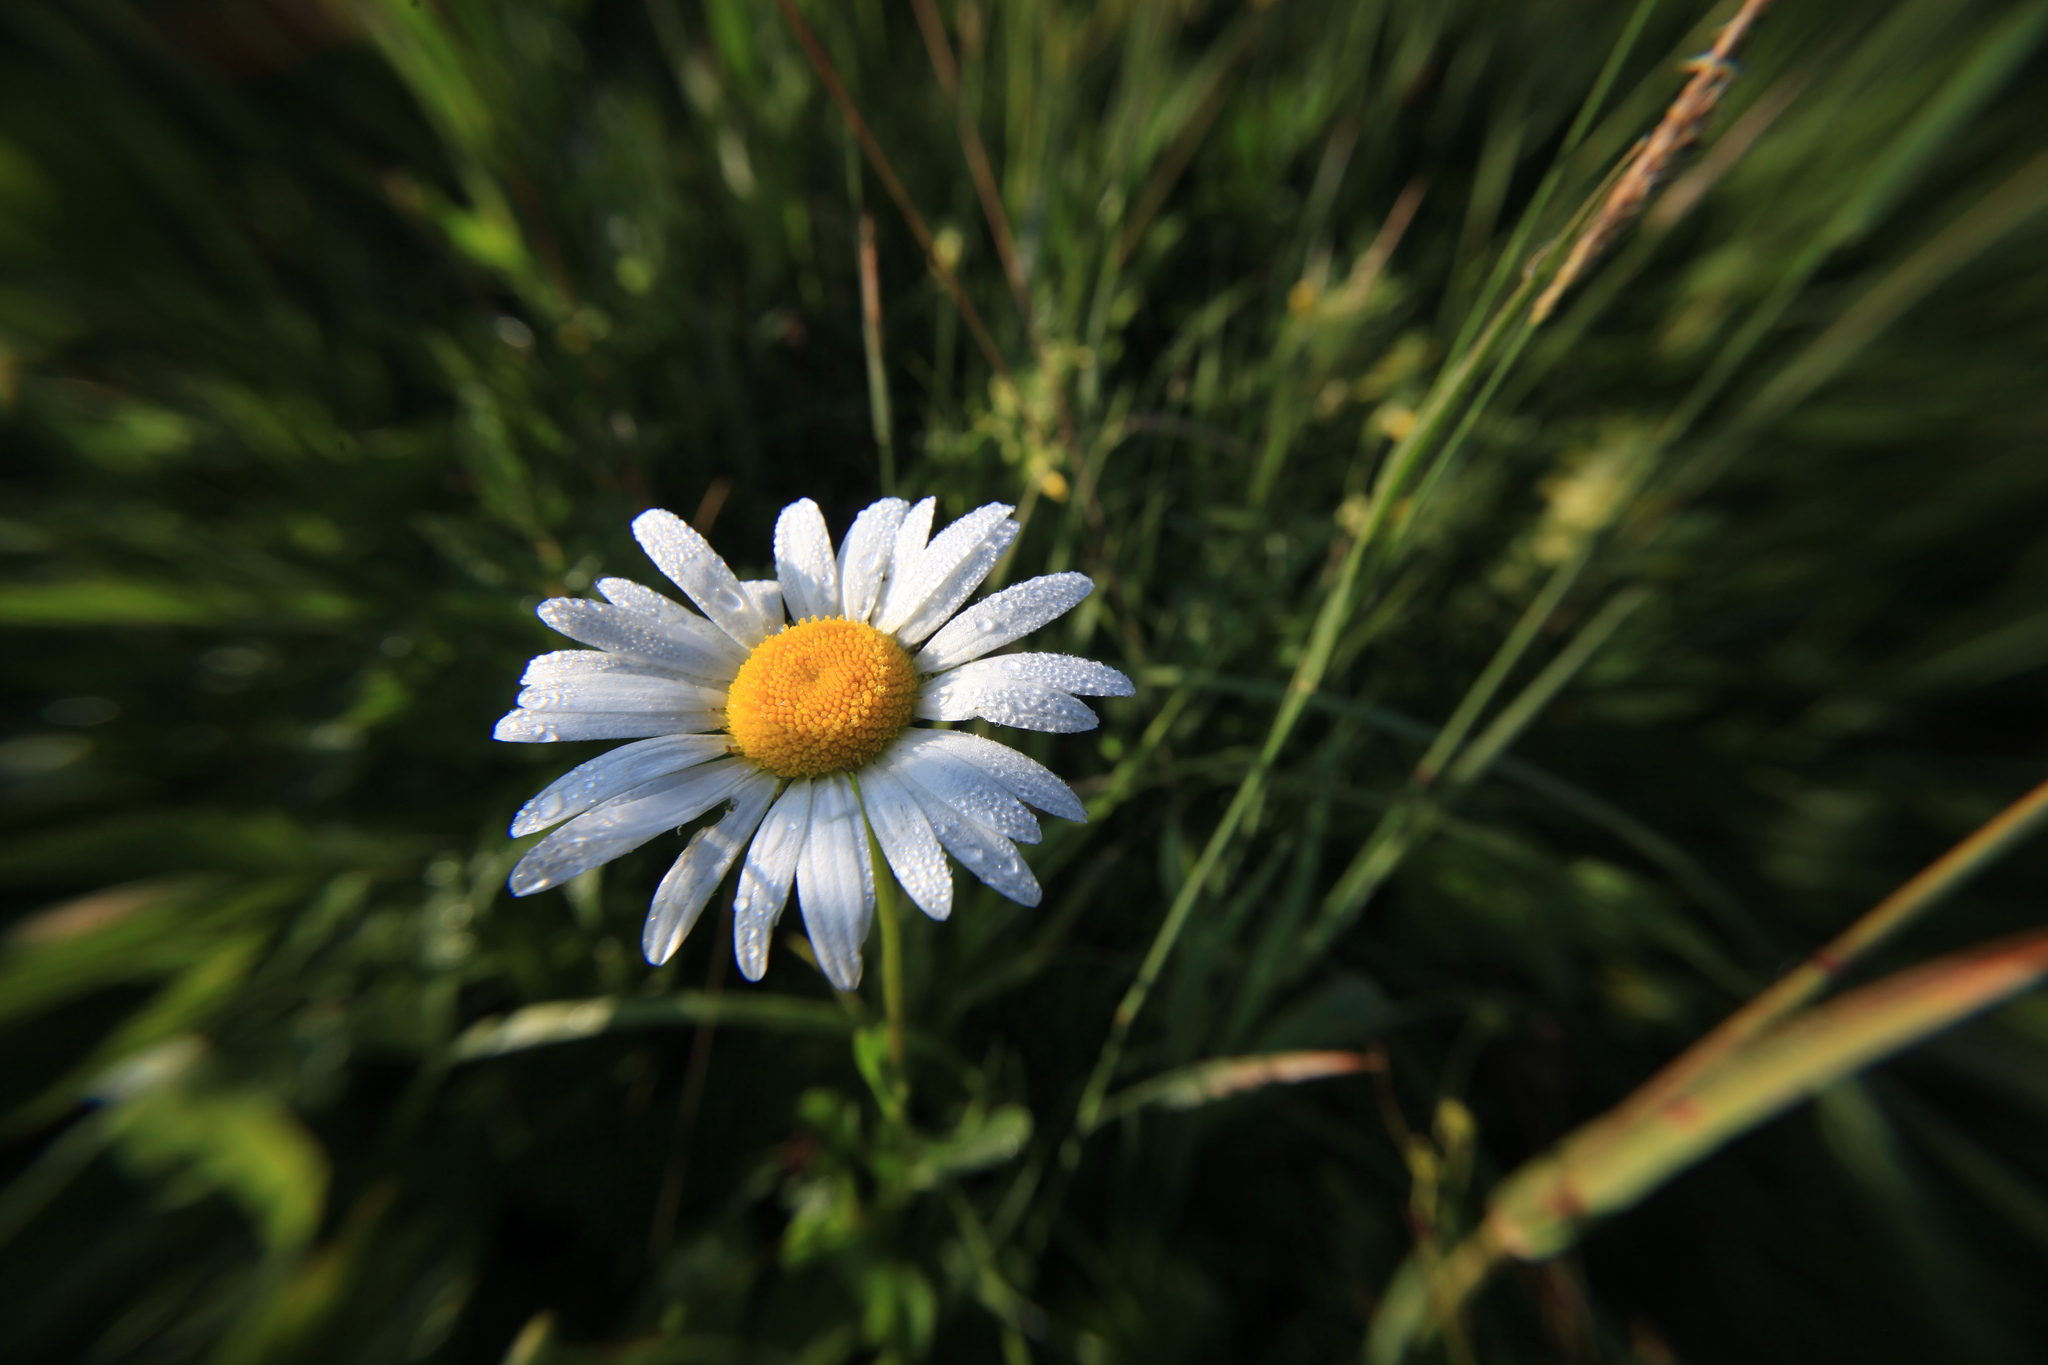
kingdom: Plantae
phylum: Tracheophyta
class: Magnoliopsida
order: Asterales
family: Asteraceae
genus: Leucanthemum
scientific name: Leucanthemum vulgare
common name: Oxeye daisy
